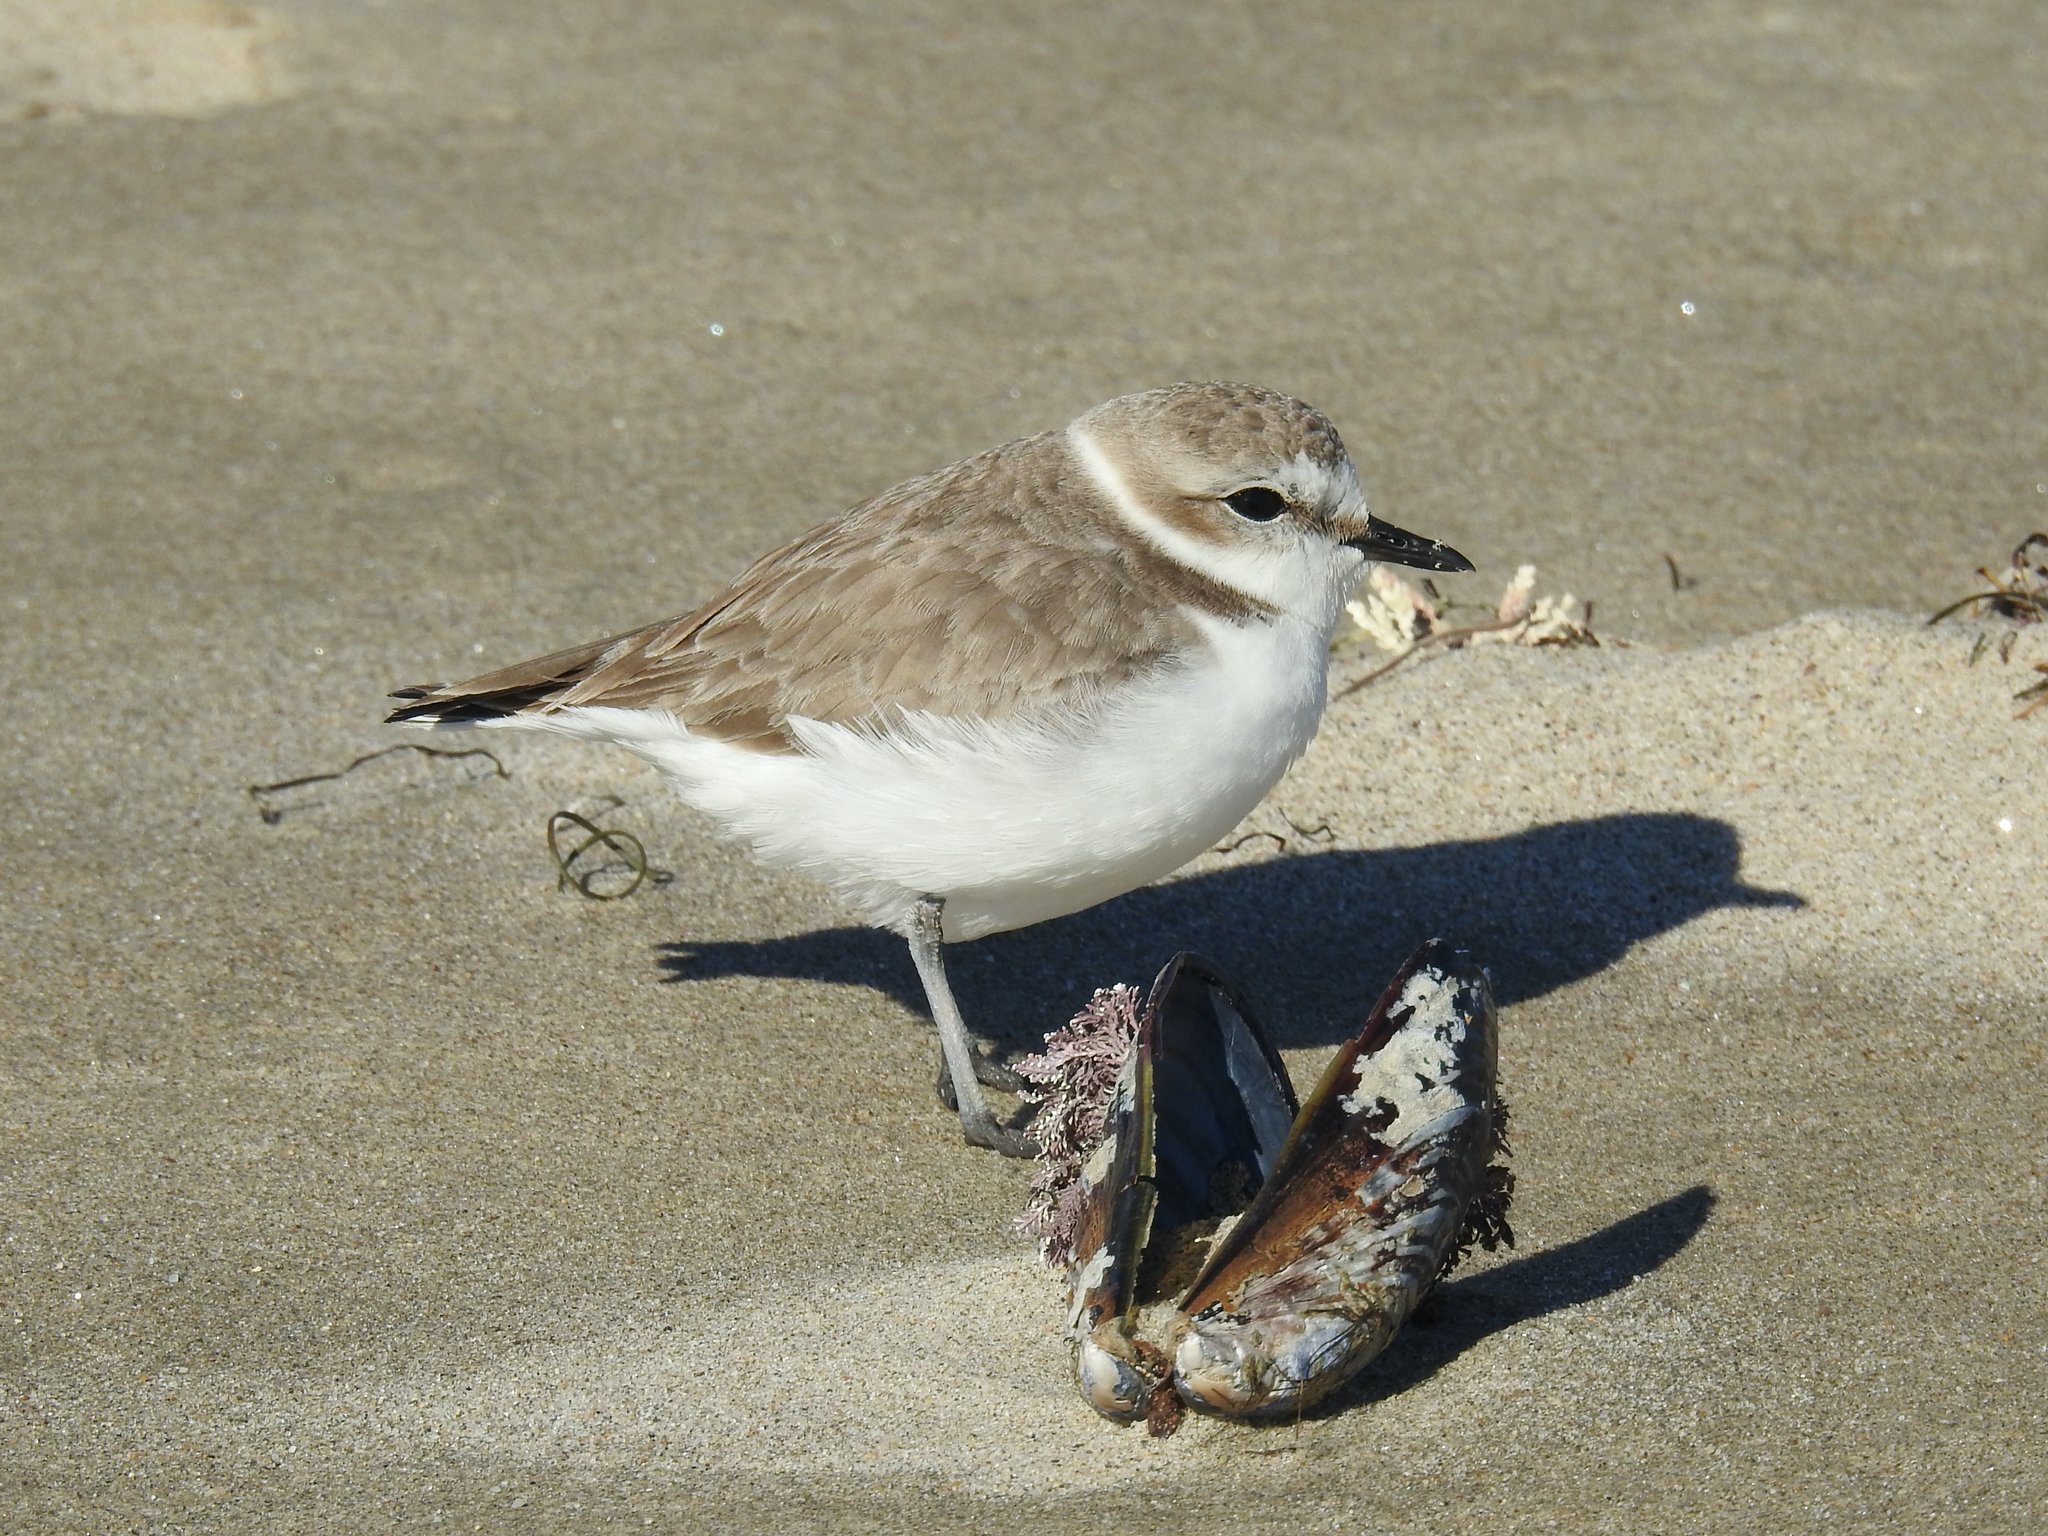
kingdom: Animalia
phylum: Chordata
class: Aves
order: Charadriiformes
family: Charadriidae
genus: Anarhynchus
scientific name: Anarhynchus
